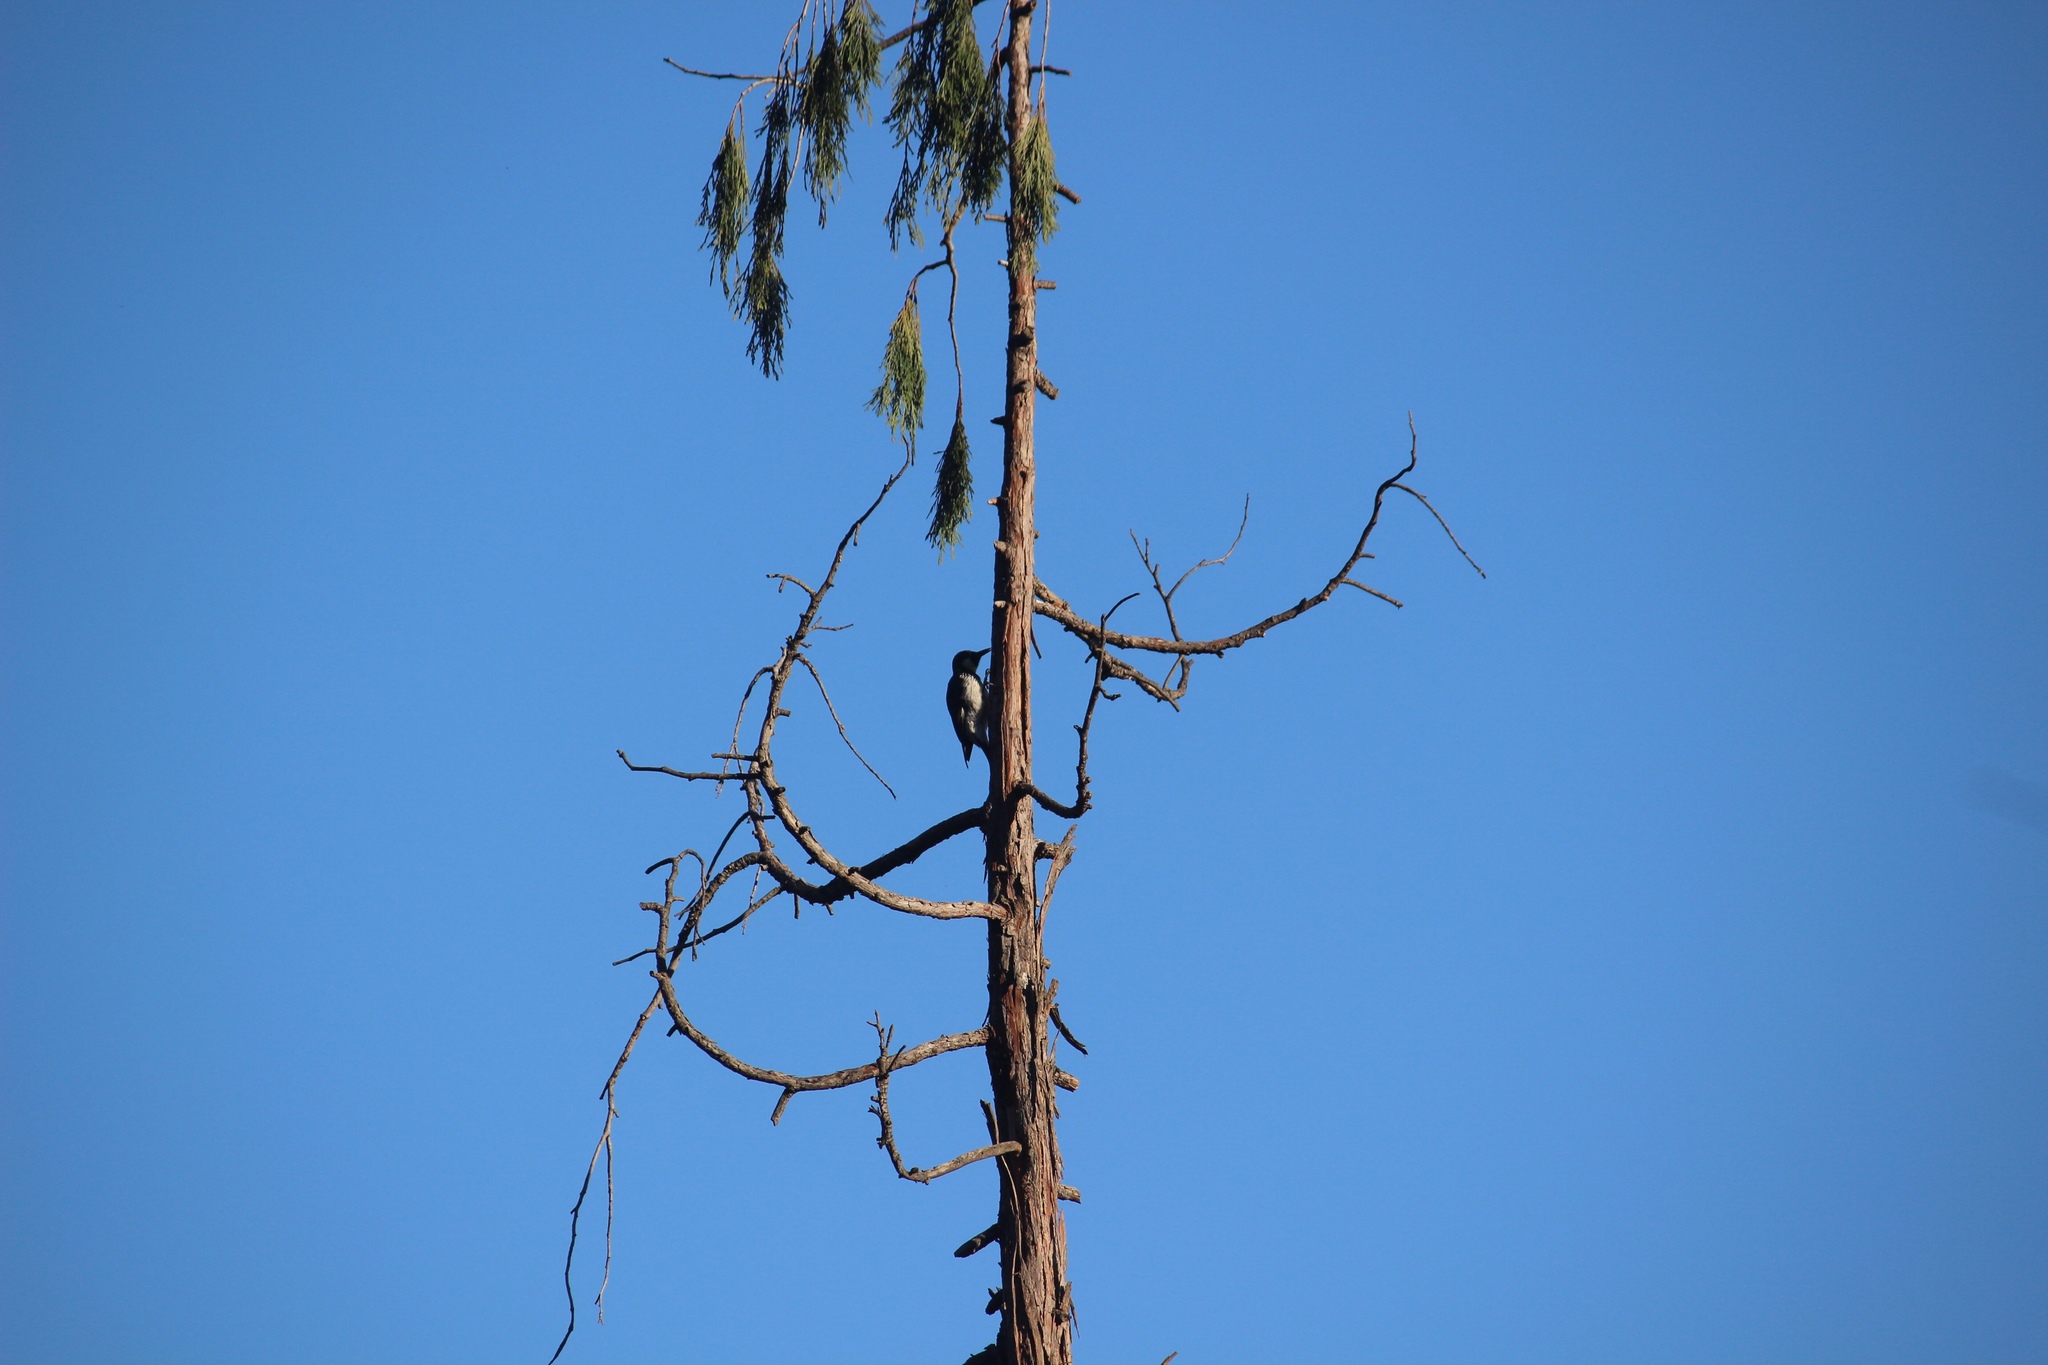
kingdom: Animalia
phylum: Chordata
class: Aves
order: Piciformes
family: Picidae
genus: Melanerpes
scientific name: Melanerpes formicivorus
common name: Acorn woodpecker
